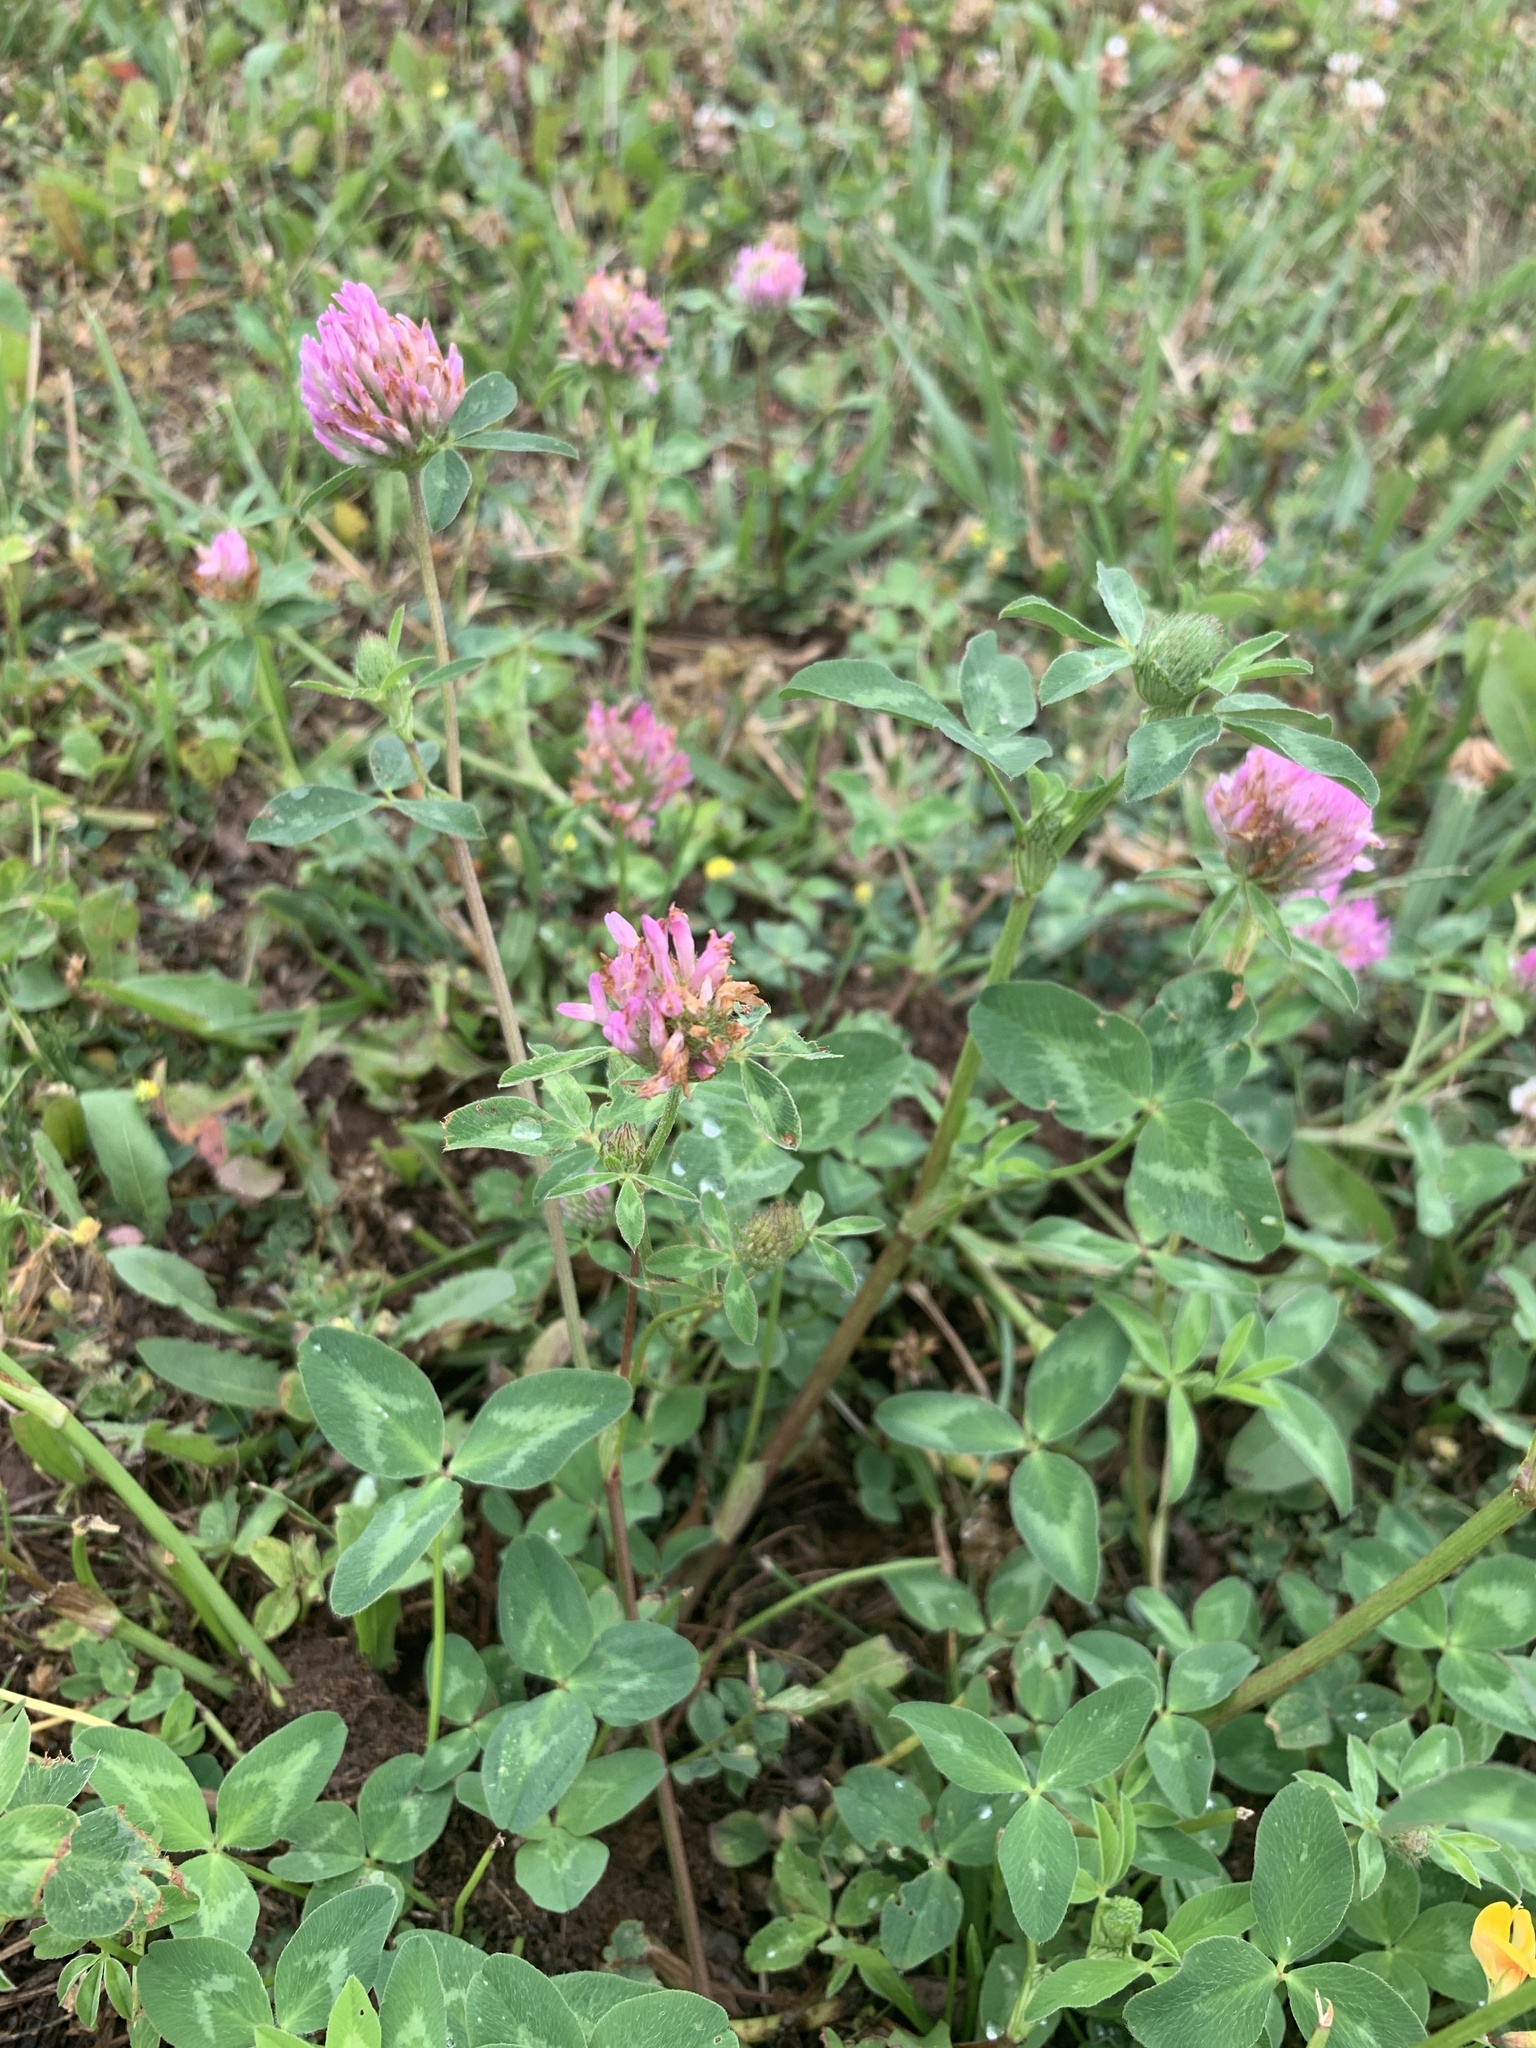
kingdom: Plantae
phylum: Tracheophyta
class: Magnoliopsida
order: Fabales
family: Fabaceae
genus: Trifolium
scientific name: Trifolium pratense
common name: Red clover
